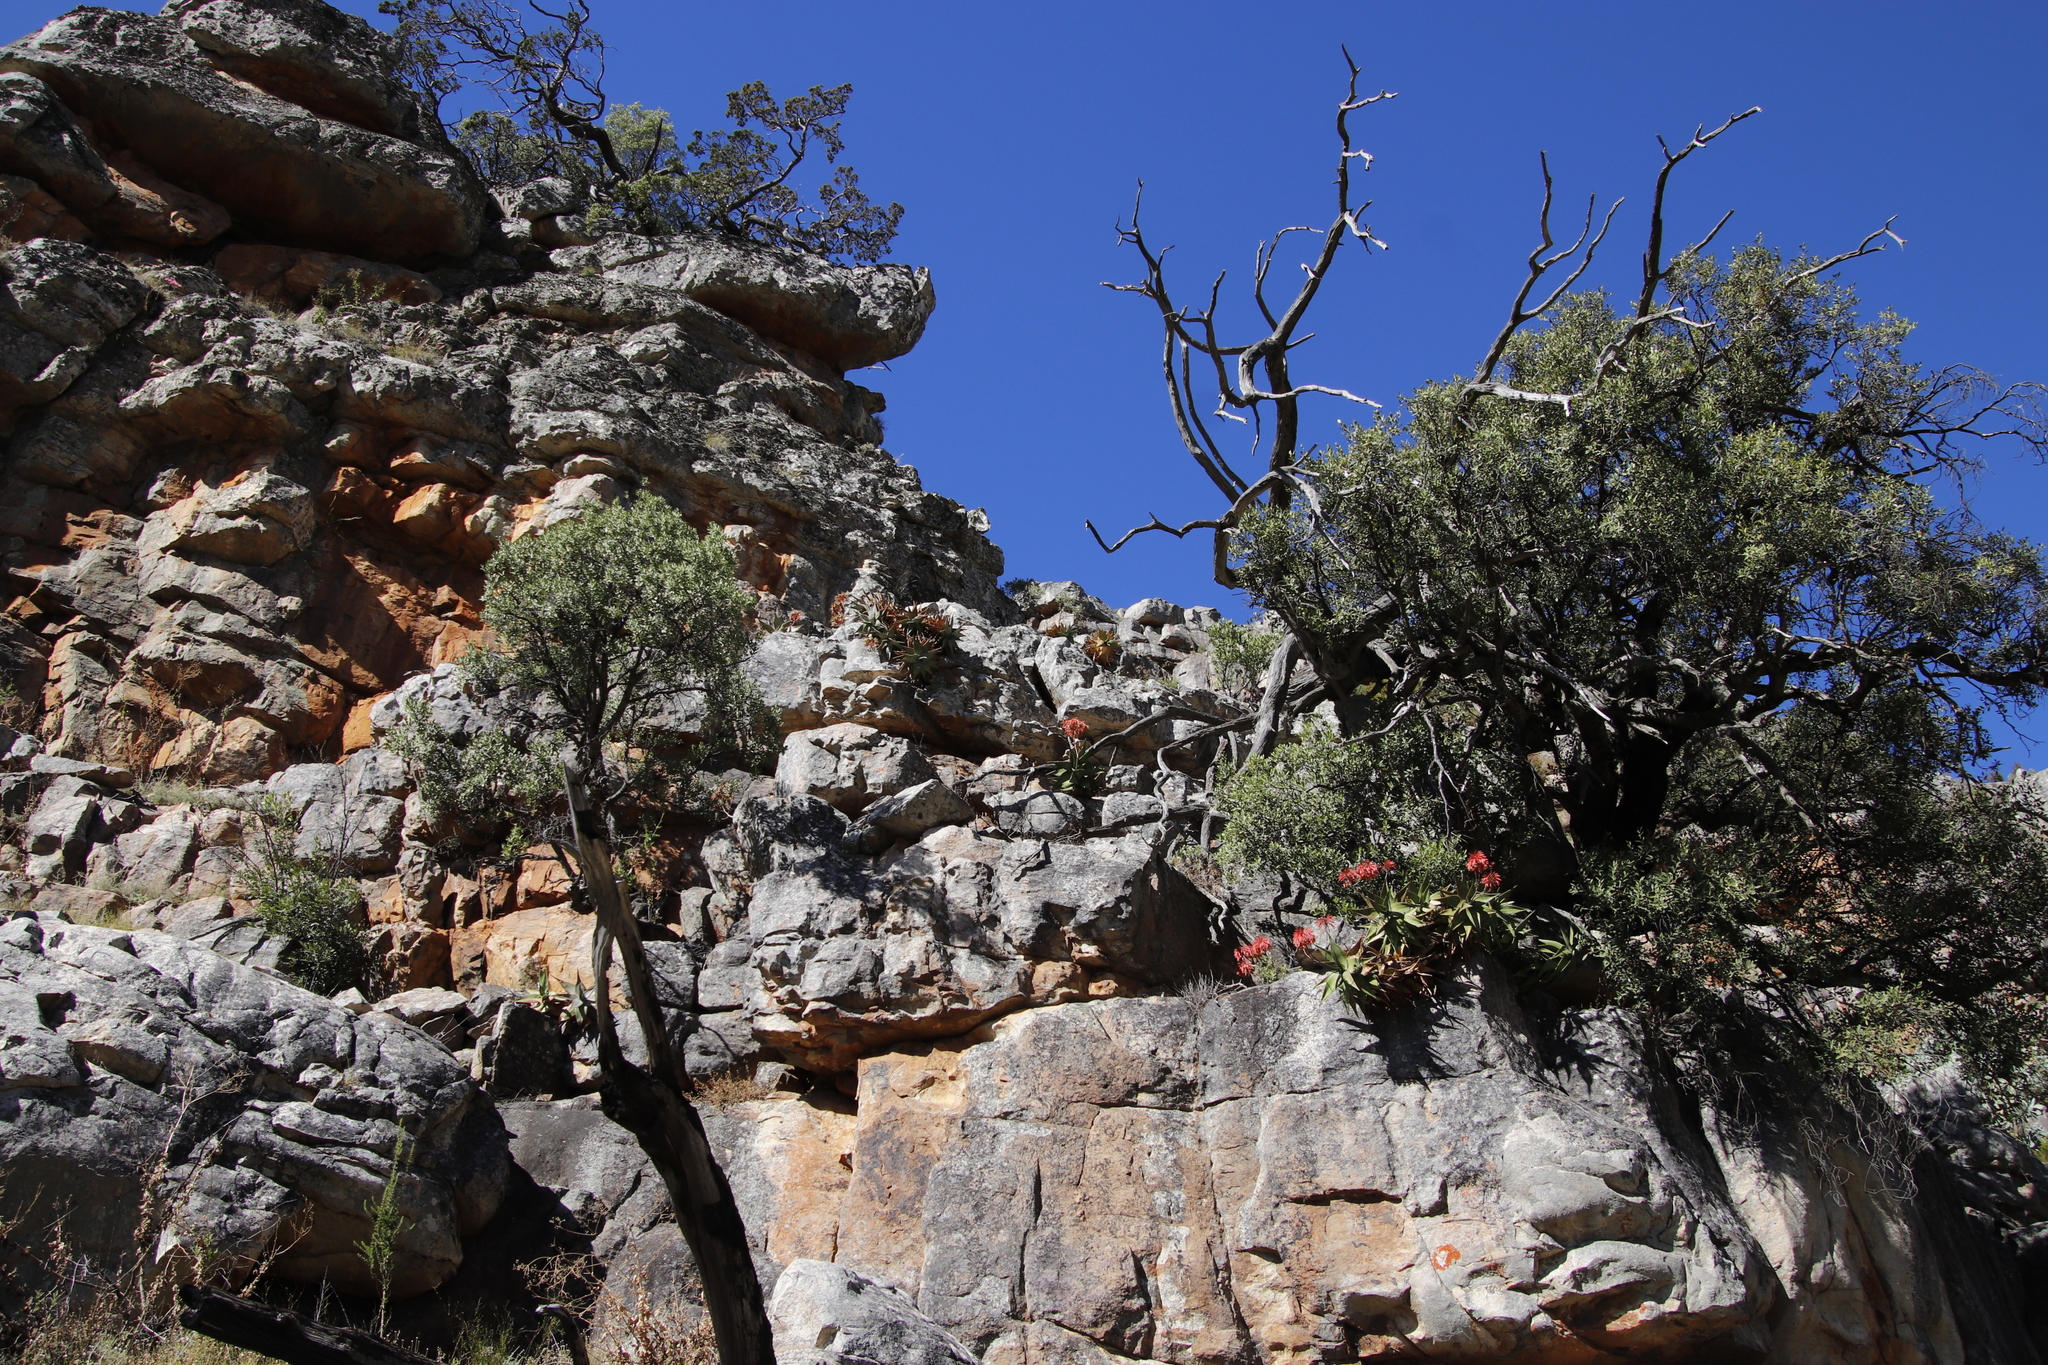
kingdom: Plantae
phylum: Tracheophyta
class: Liliopsida
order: Asparagales
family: Asphodelaceae
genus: Aloe
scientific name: Aloe perfoliata
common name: Mitra aloe
